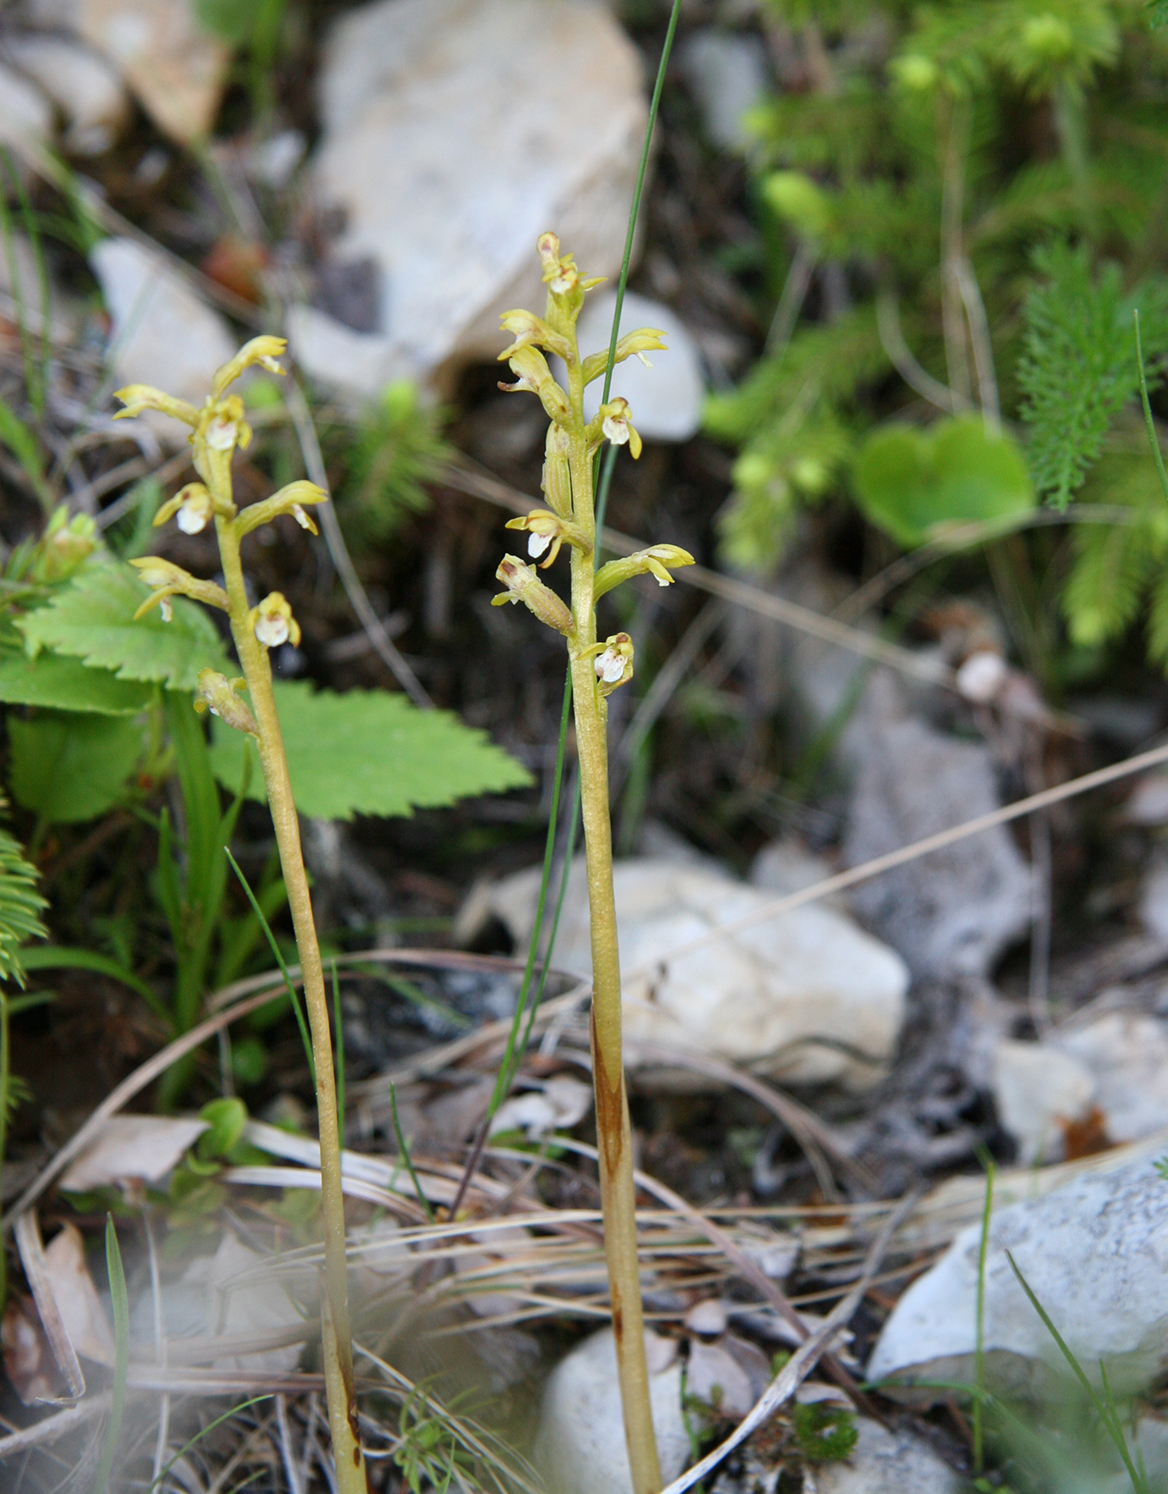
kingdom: Plantae
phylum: Tracheophyta
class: Liliopsida
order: Asparagales
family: Orchidaceae
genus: Corallorhiza
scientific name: Corallorhiza trifida
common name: Yellow coralroot
